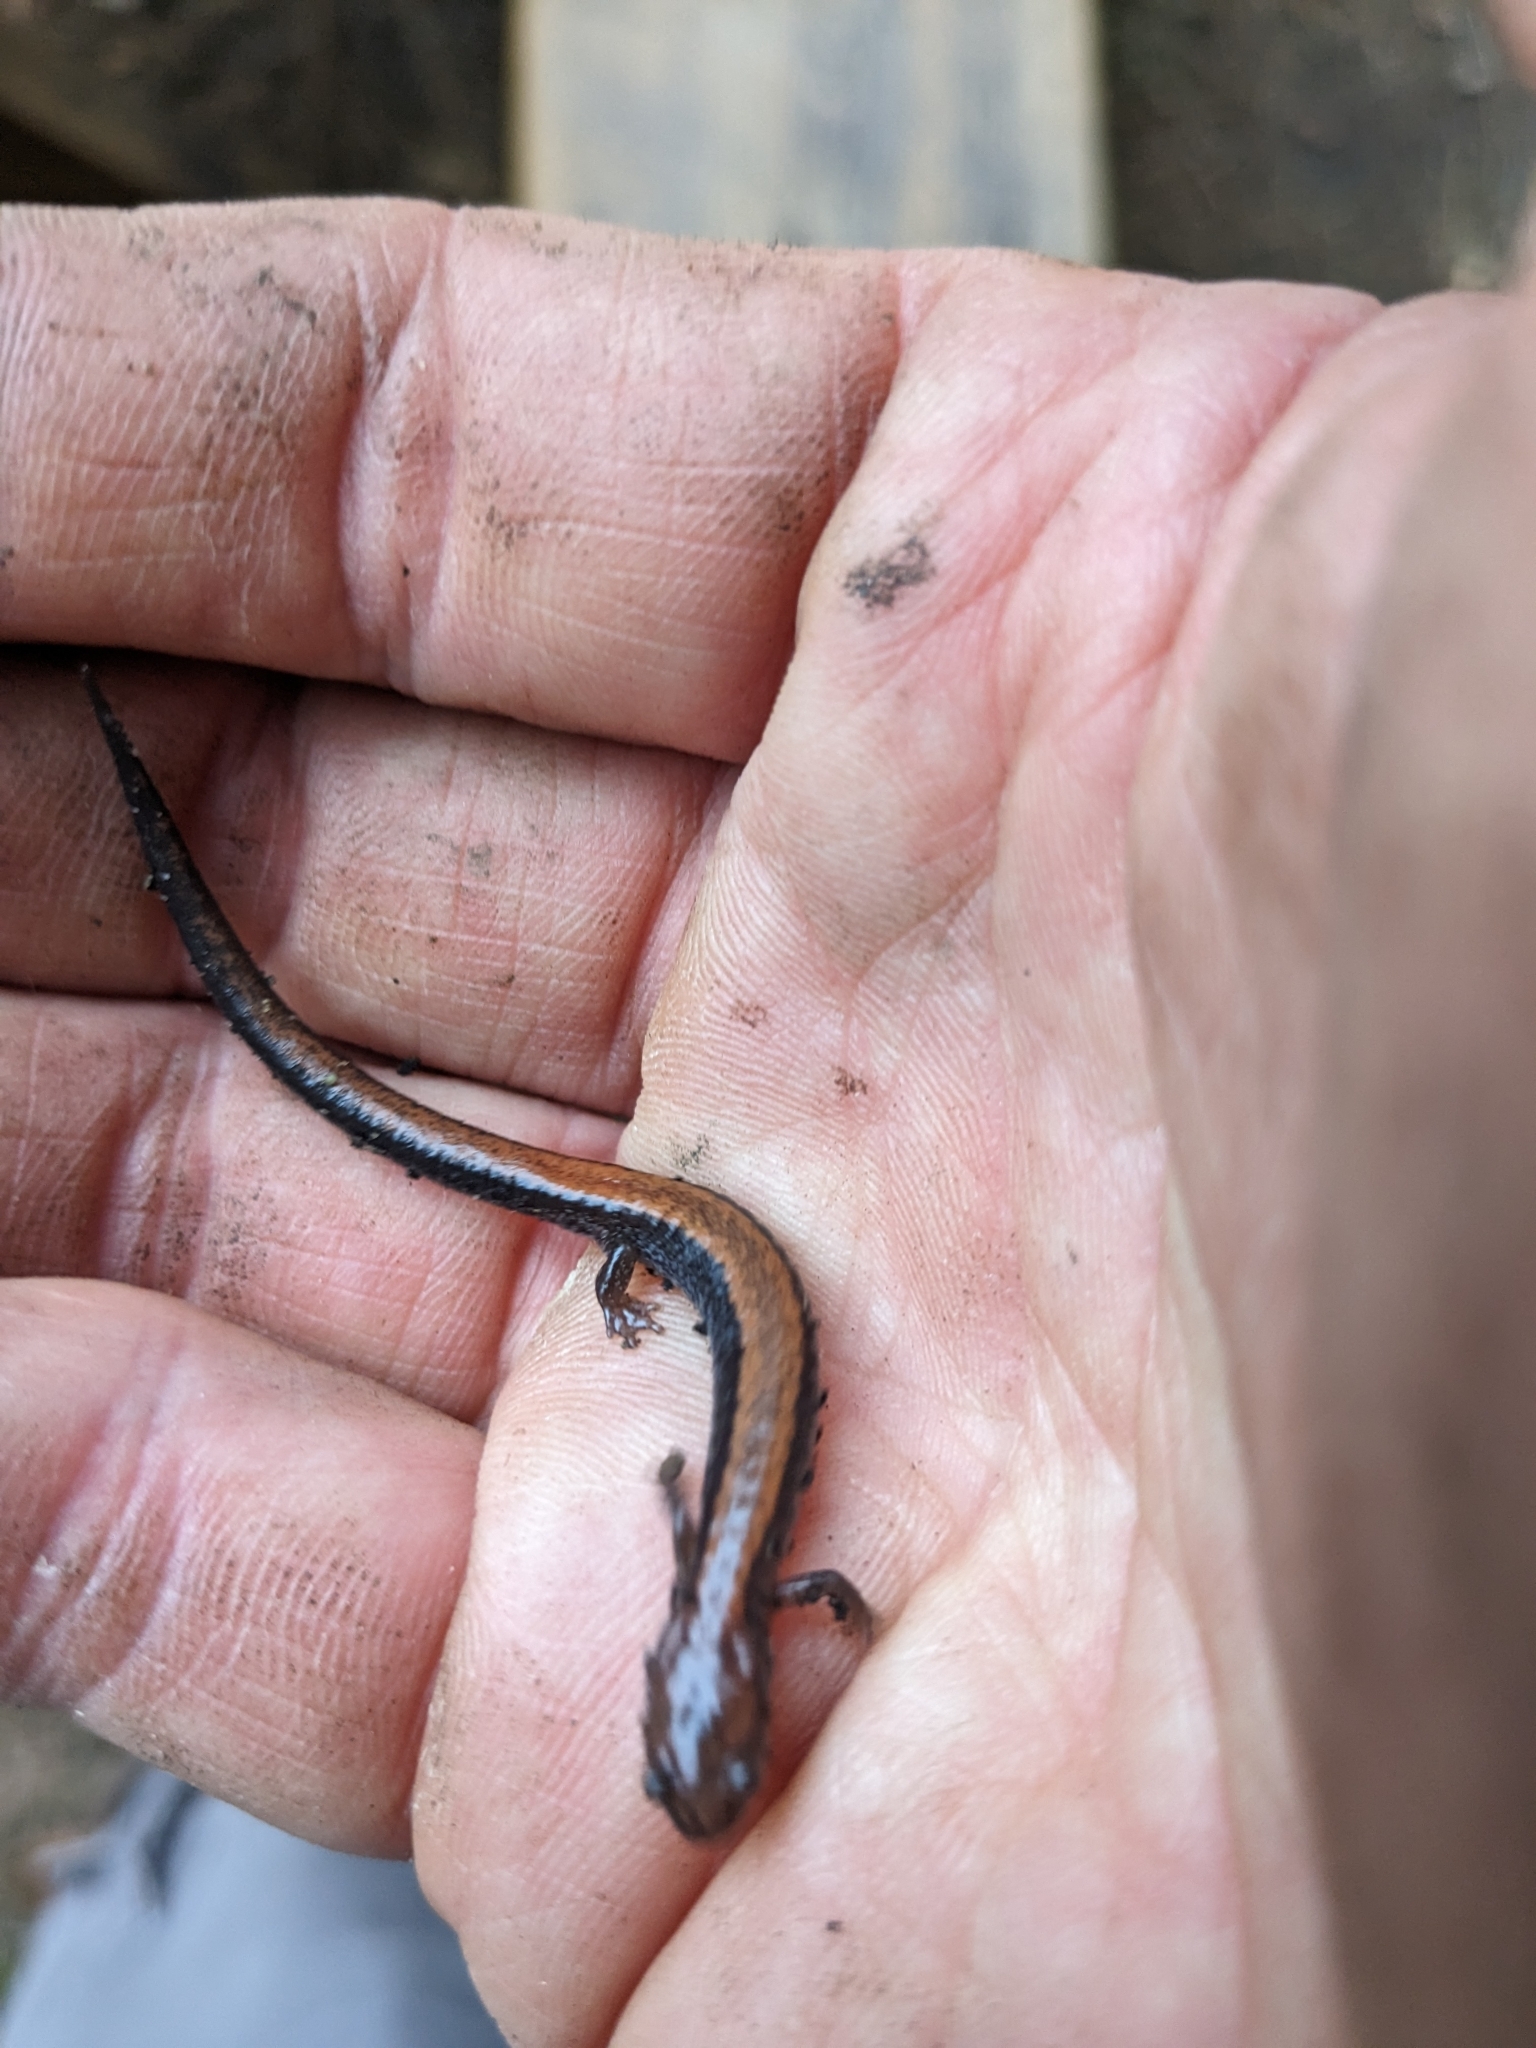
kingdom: Animalia
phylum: Chordata
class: Amphibia
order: Caudata
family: Plethodontidae
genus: Plethodon
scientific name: Plethodon cinereus
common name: Redback salamander
